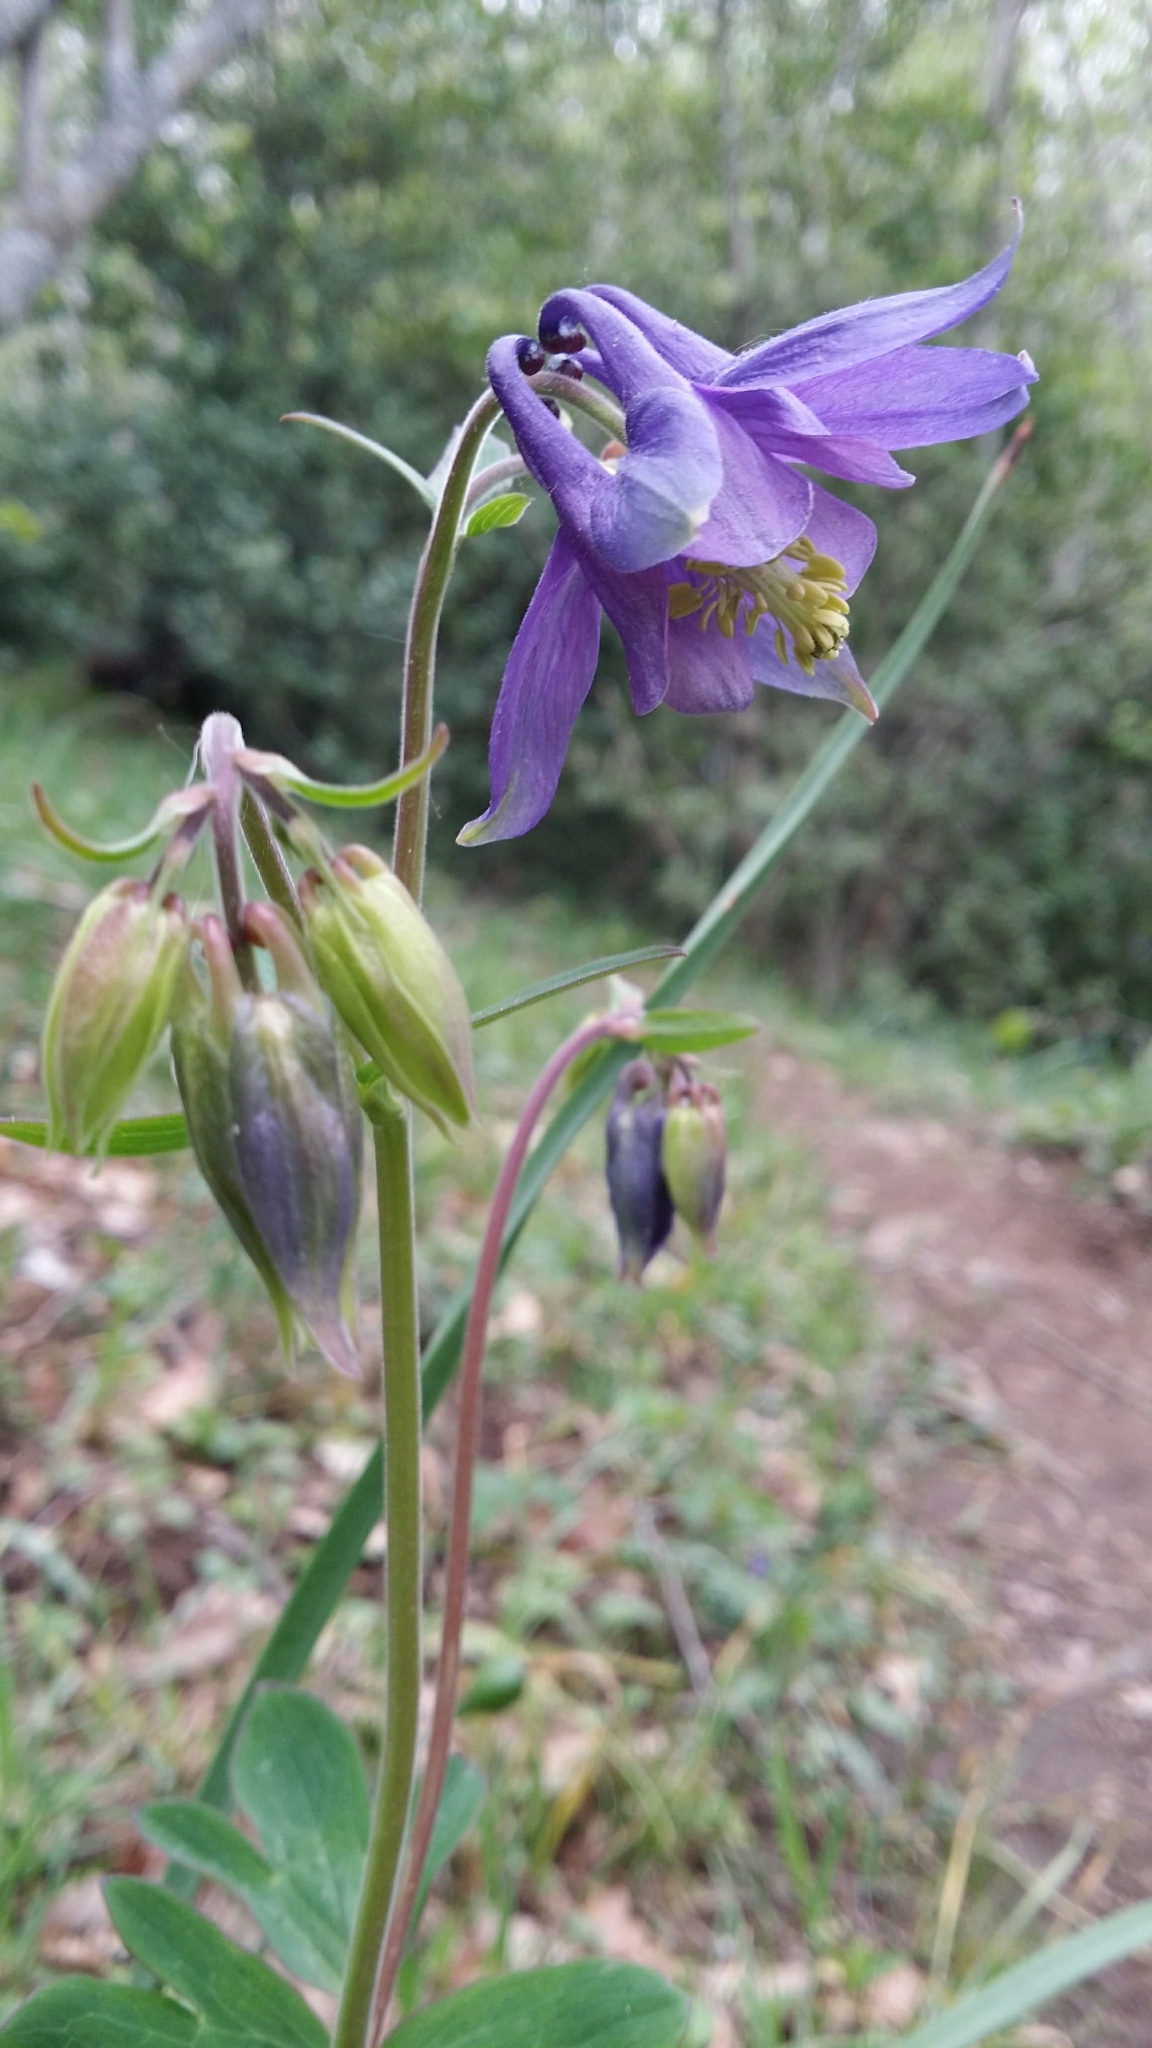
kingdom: Plantae
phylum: Tracheophyta
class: Magnoliopsida
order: Ranunculales
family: Ranunculaceae
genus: Aquilegia
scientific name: Aquilegia vulgaris
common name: Columbine
